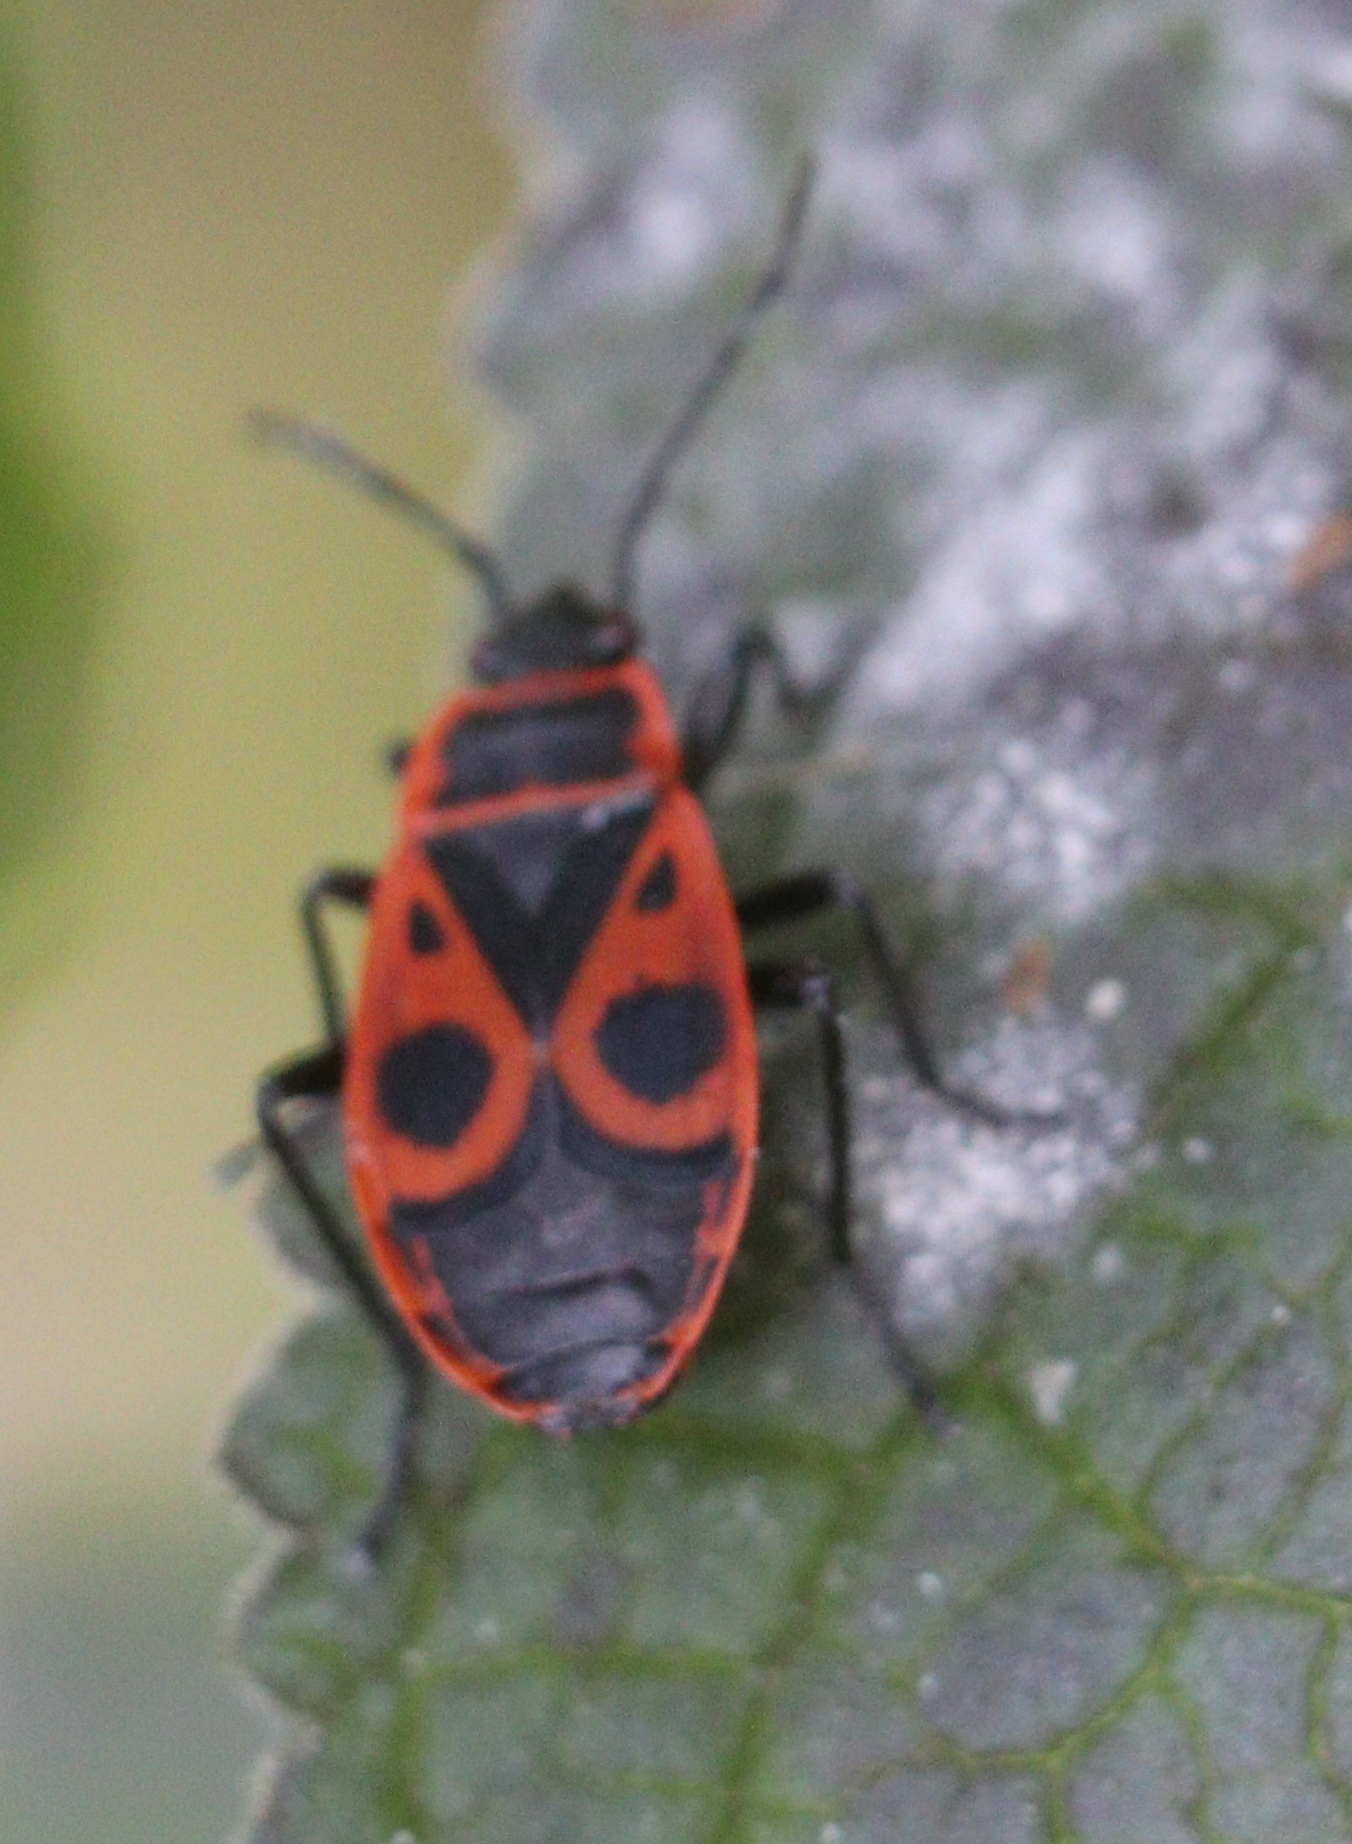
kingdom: Animalia
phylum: Arthropoda
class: Insecta
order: Hemiptera
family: Pyrrhocoridae
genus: Pyrrhocoris
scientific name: Pyrrhocoris apterus
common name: Firebug
